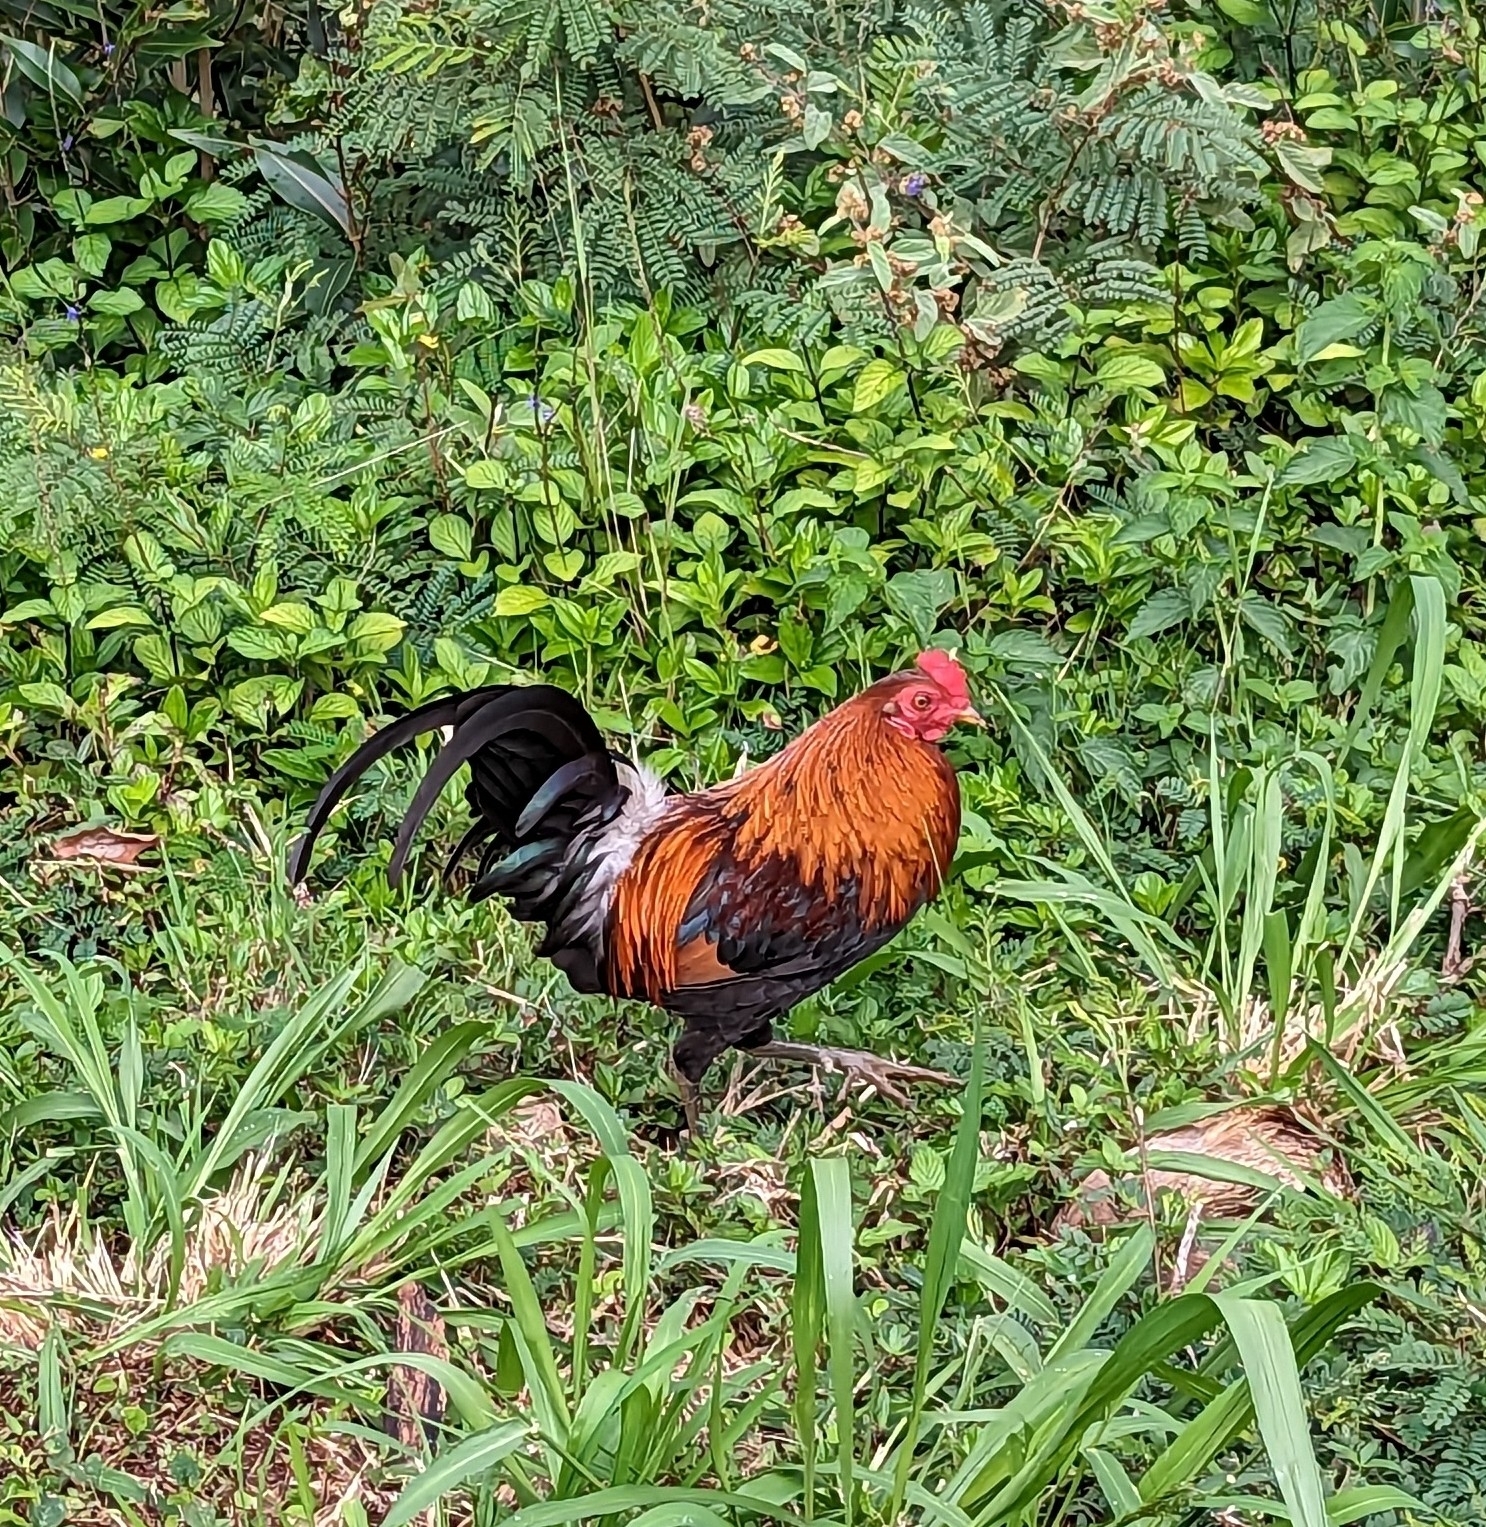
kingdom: Animalia
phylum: Chordata
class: Aves
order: Galliformes
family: Phasianidae
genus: Gallus
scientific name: Gallus gallus
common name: Red junglefowl
